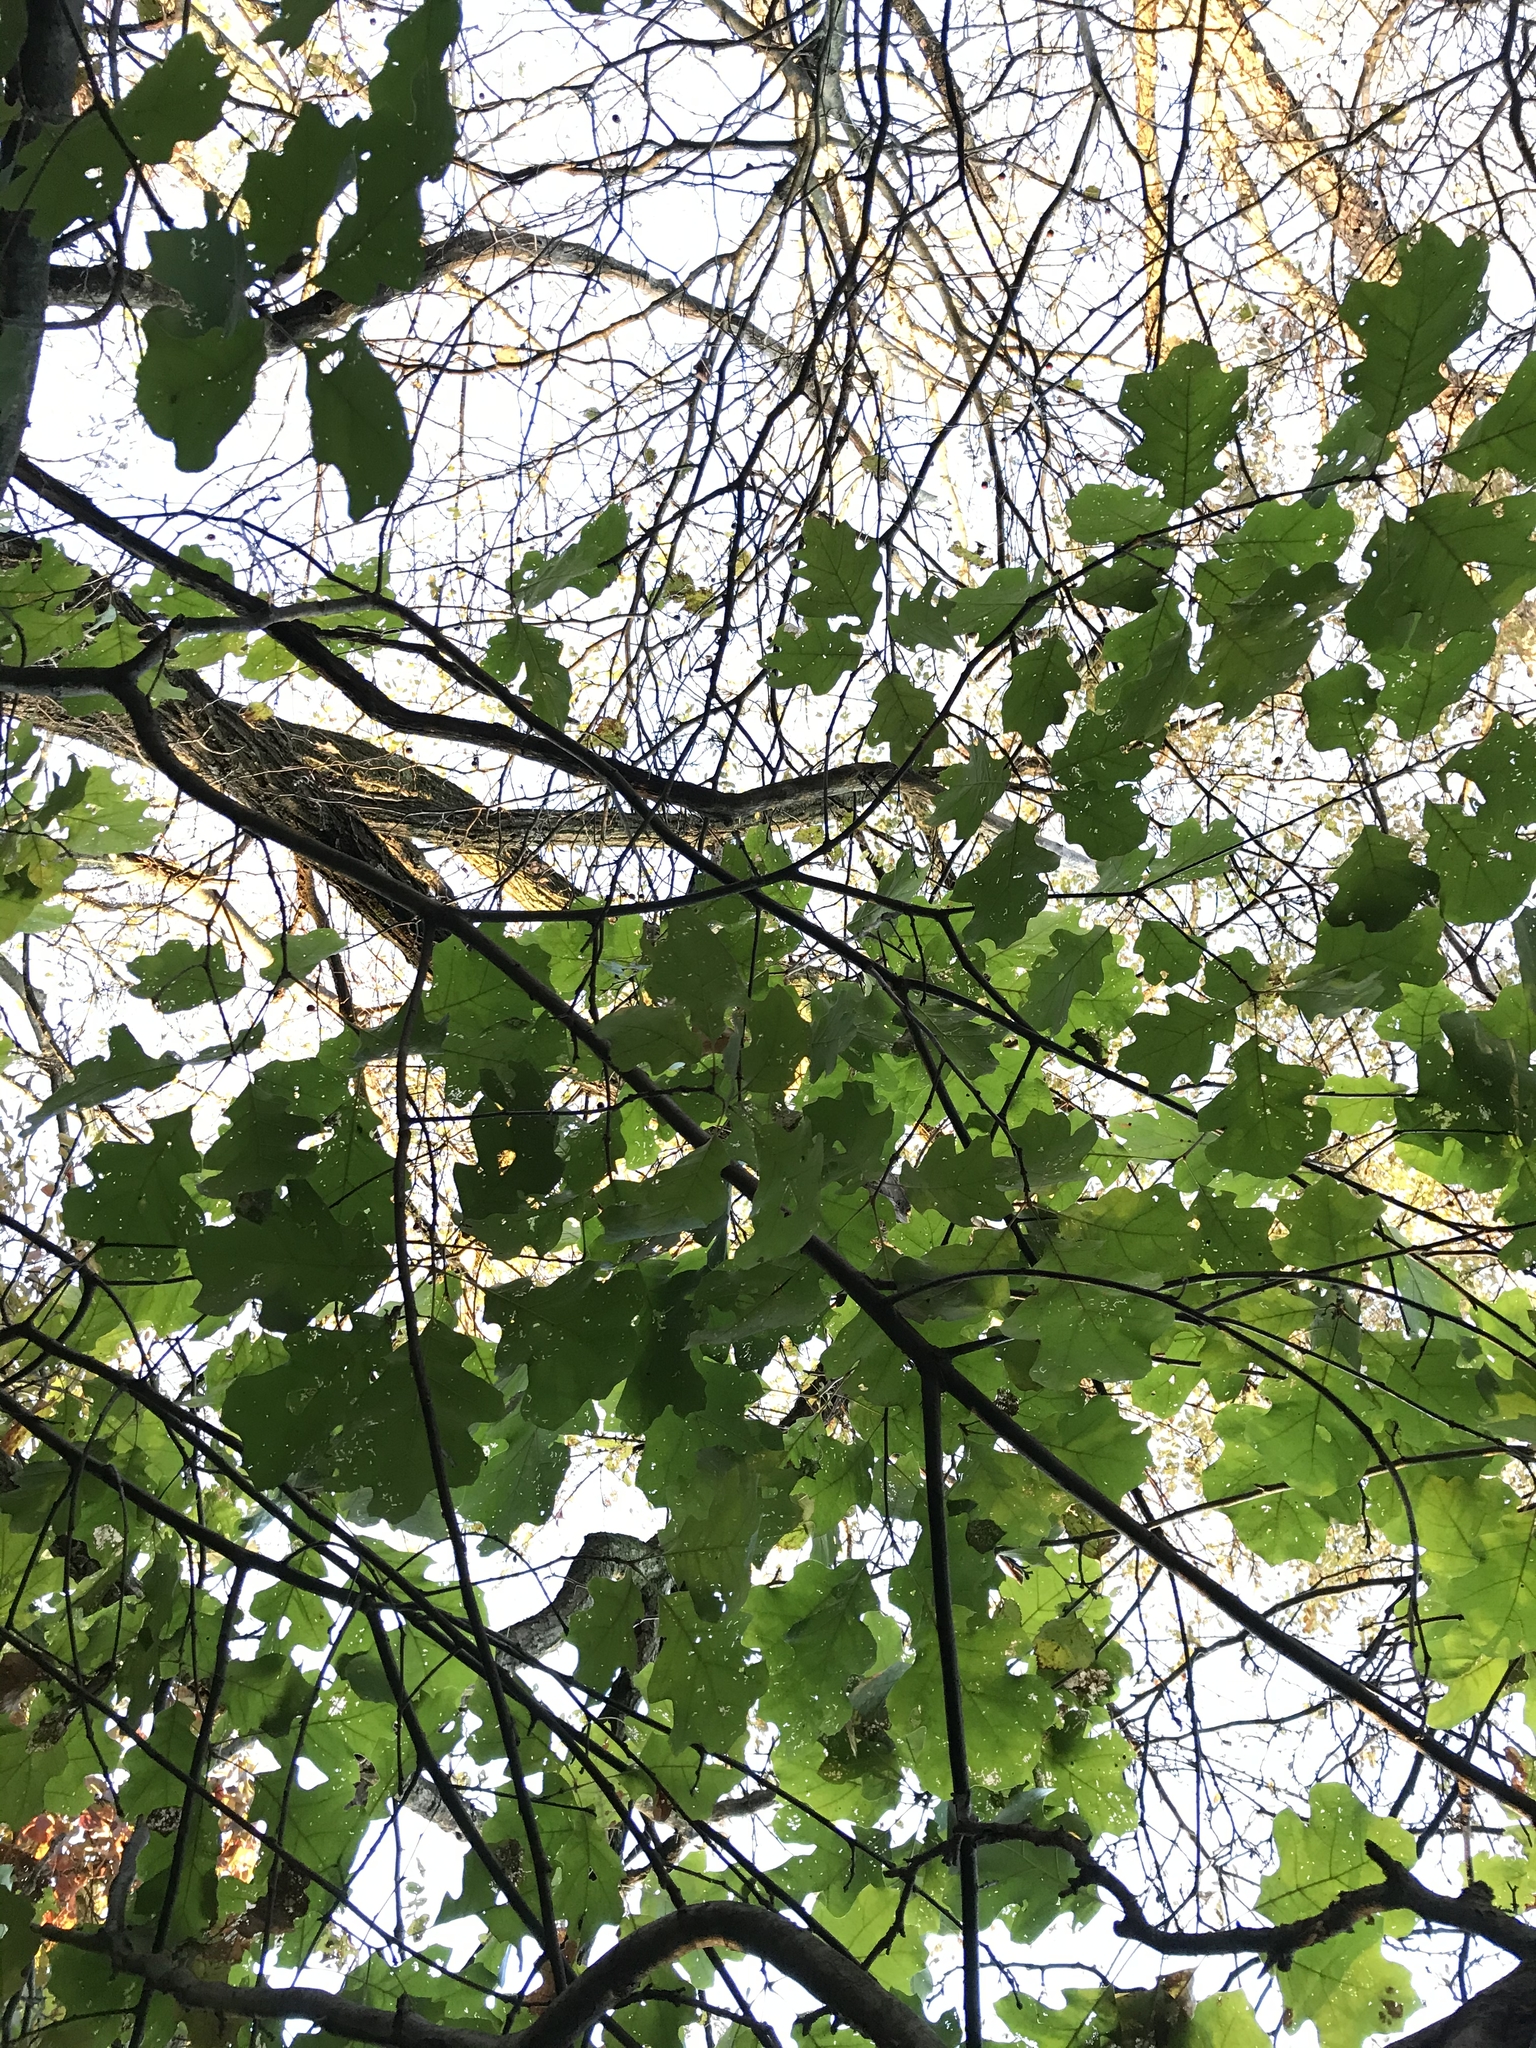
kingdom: Plantae
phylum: Tracheophyta
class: Magnoliopsida
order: Fagales
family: Fagaceae
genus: Quercus
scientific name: Quercus velutina
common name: Black oak
